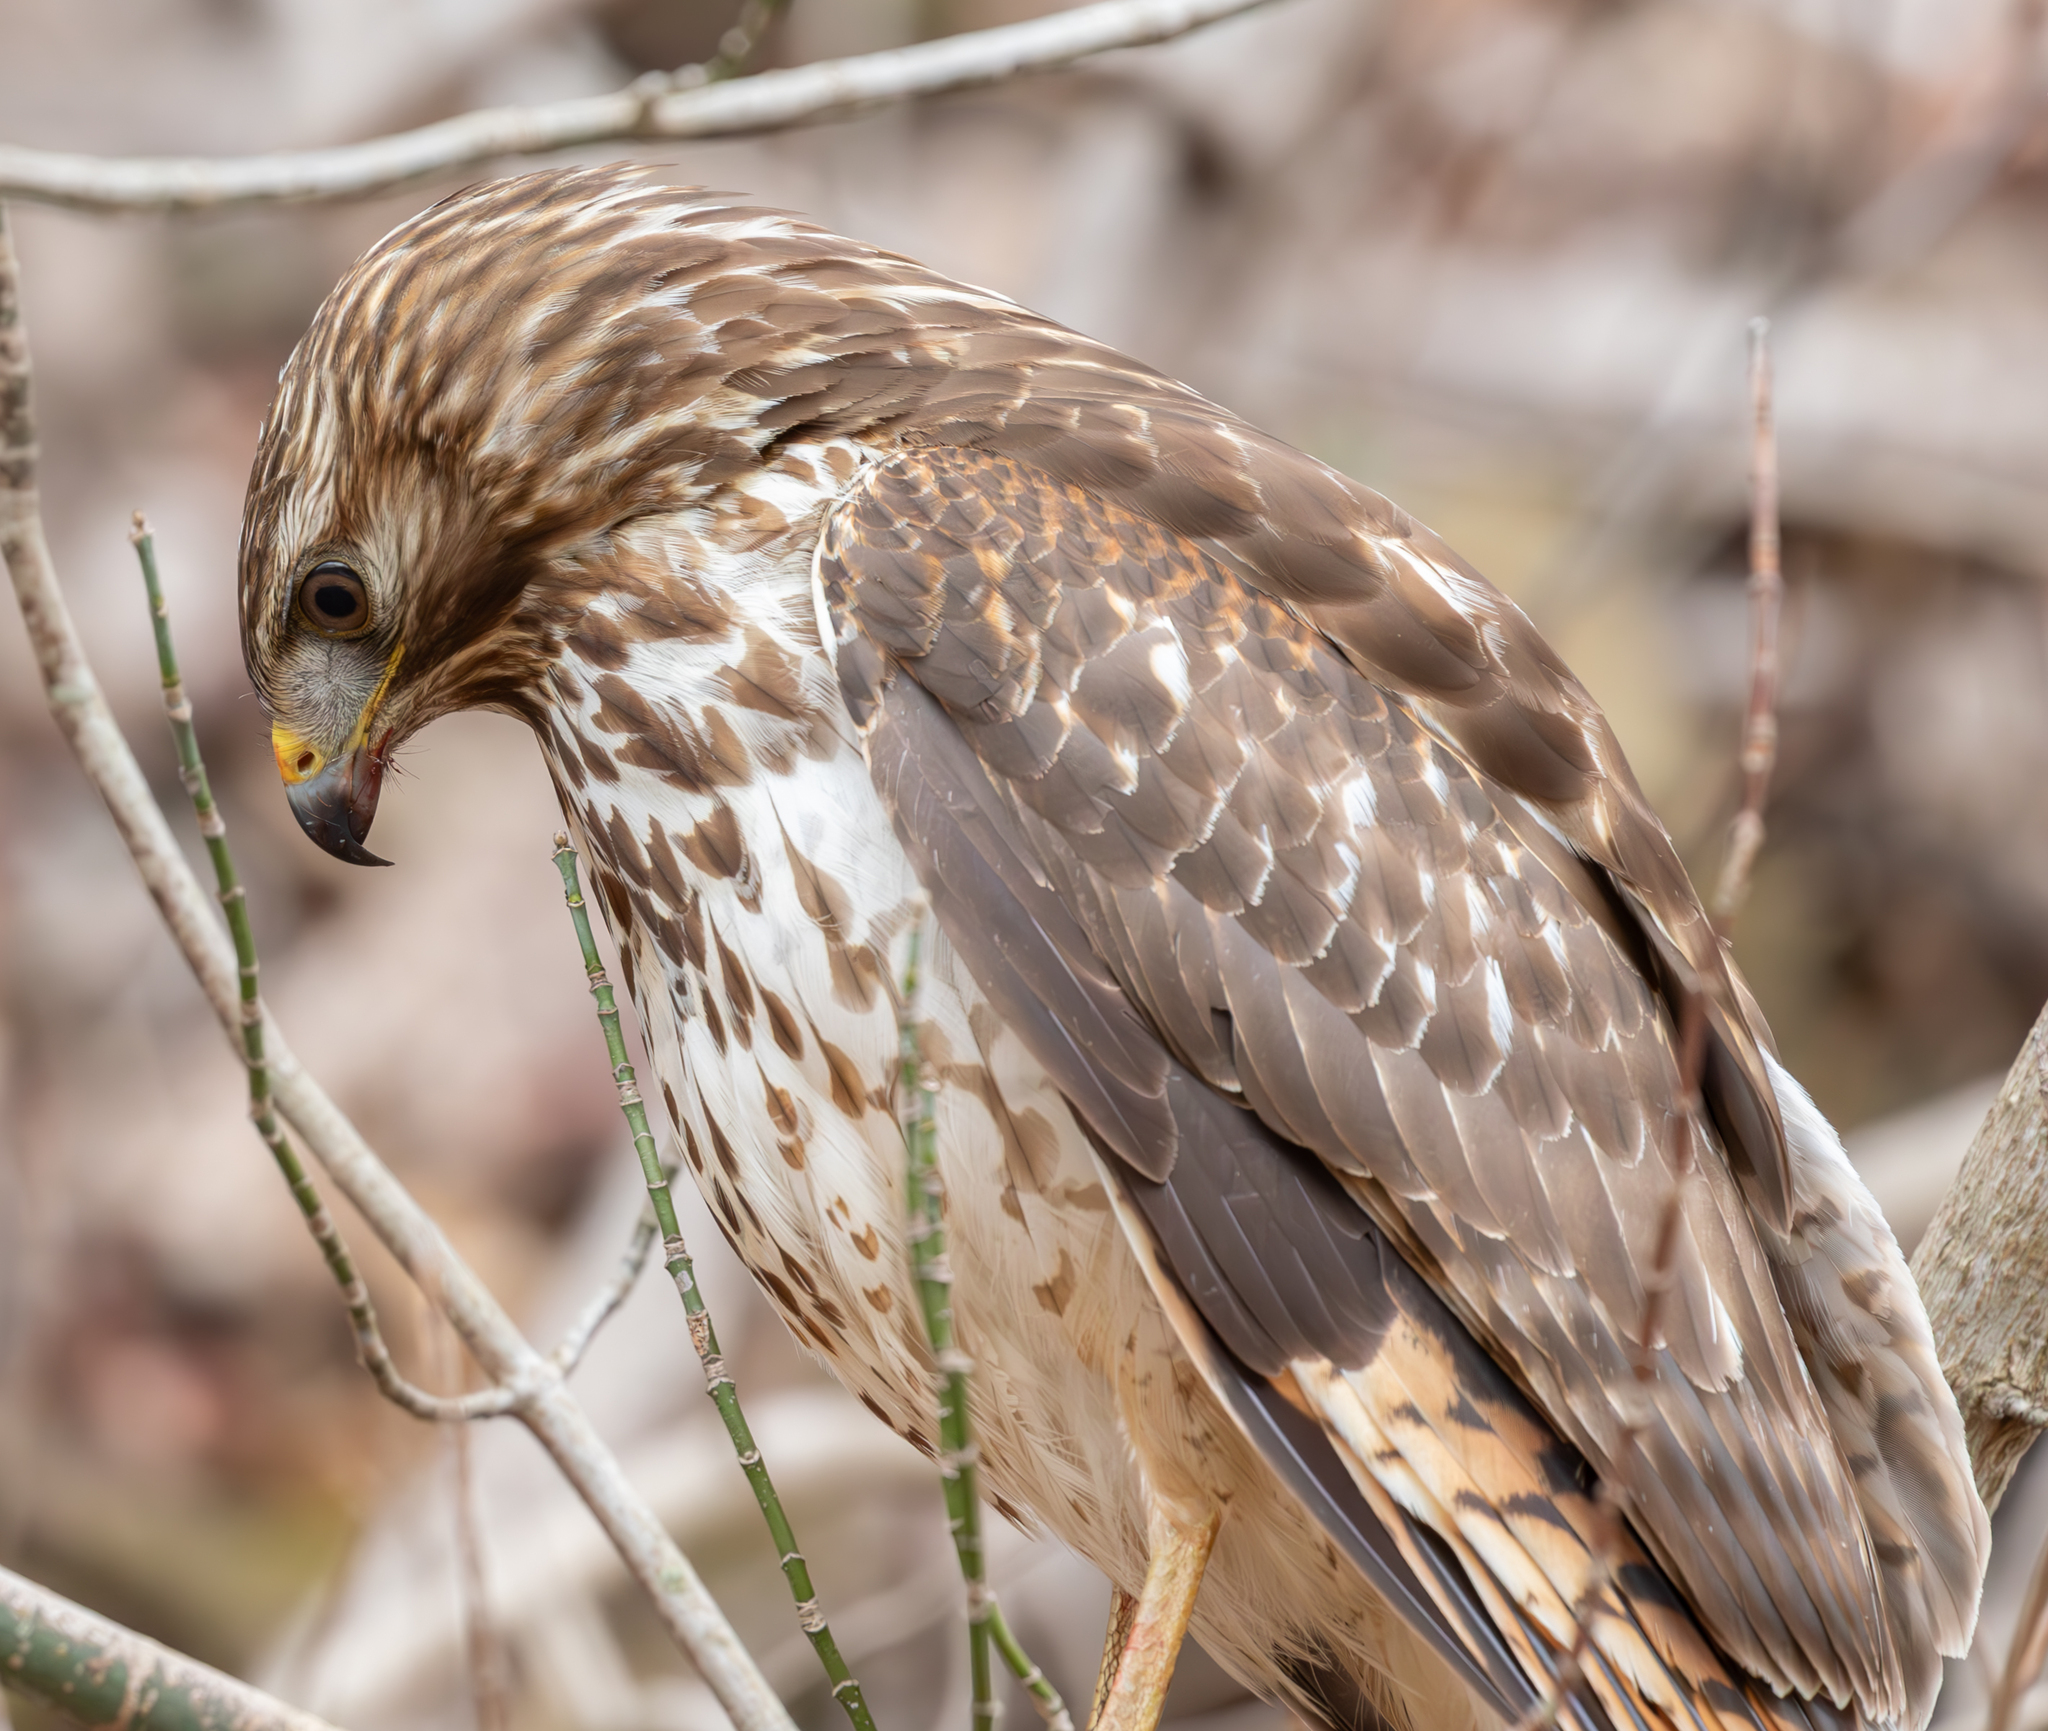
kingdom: Animalia
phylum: Chordata
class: Aves
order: Accipitriformes
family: Accipitridae
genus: Buteo
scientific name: Buteo lineatus
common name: Red-shouldered hawk
